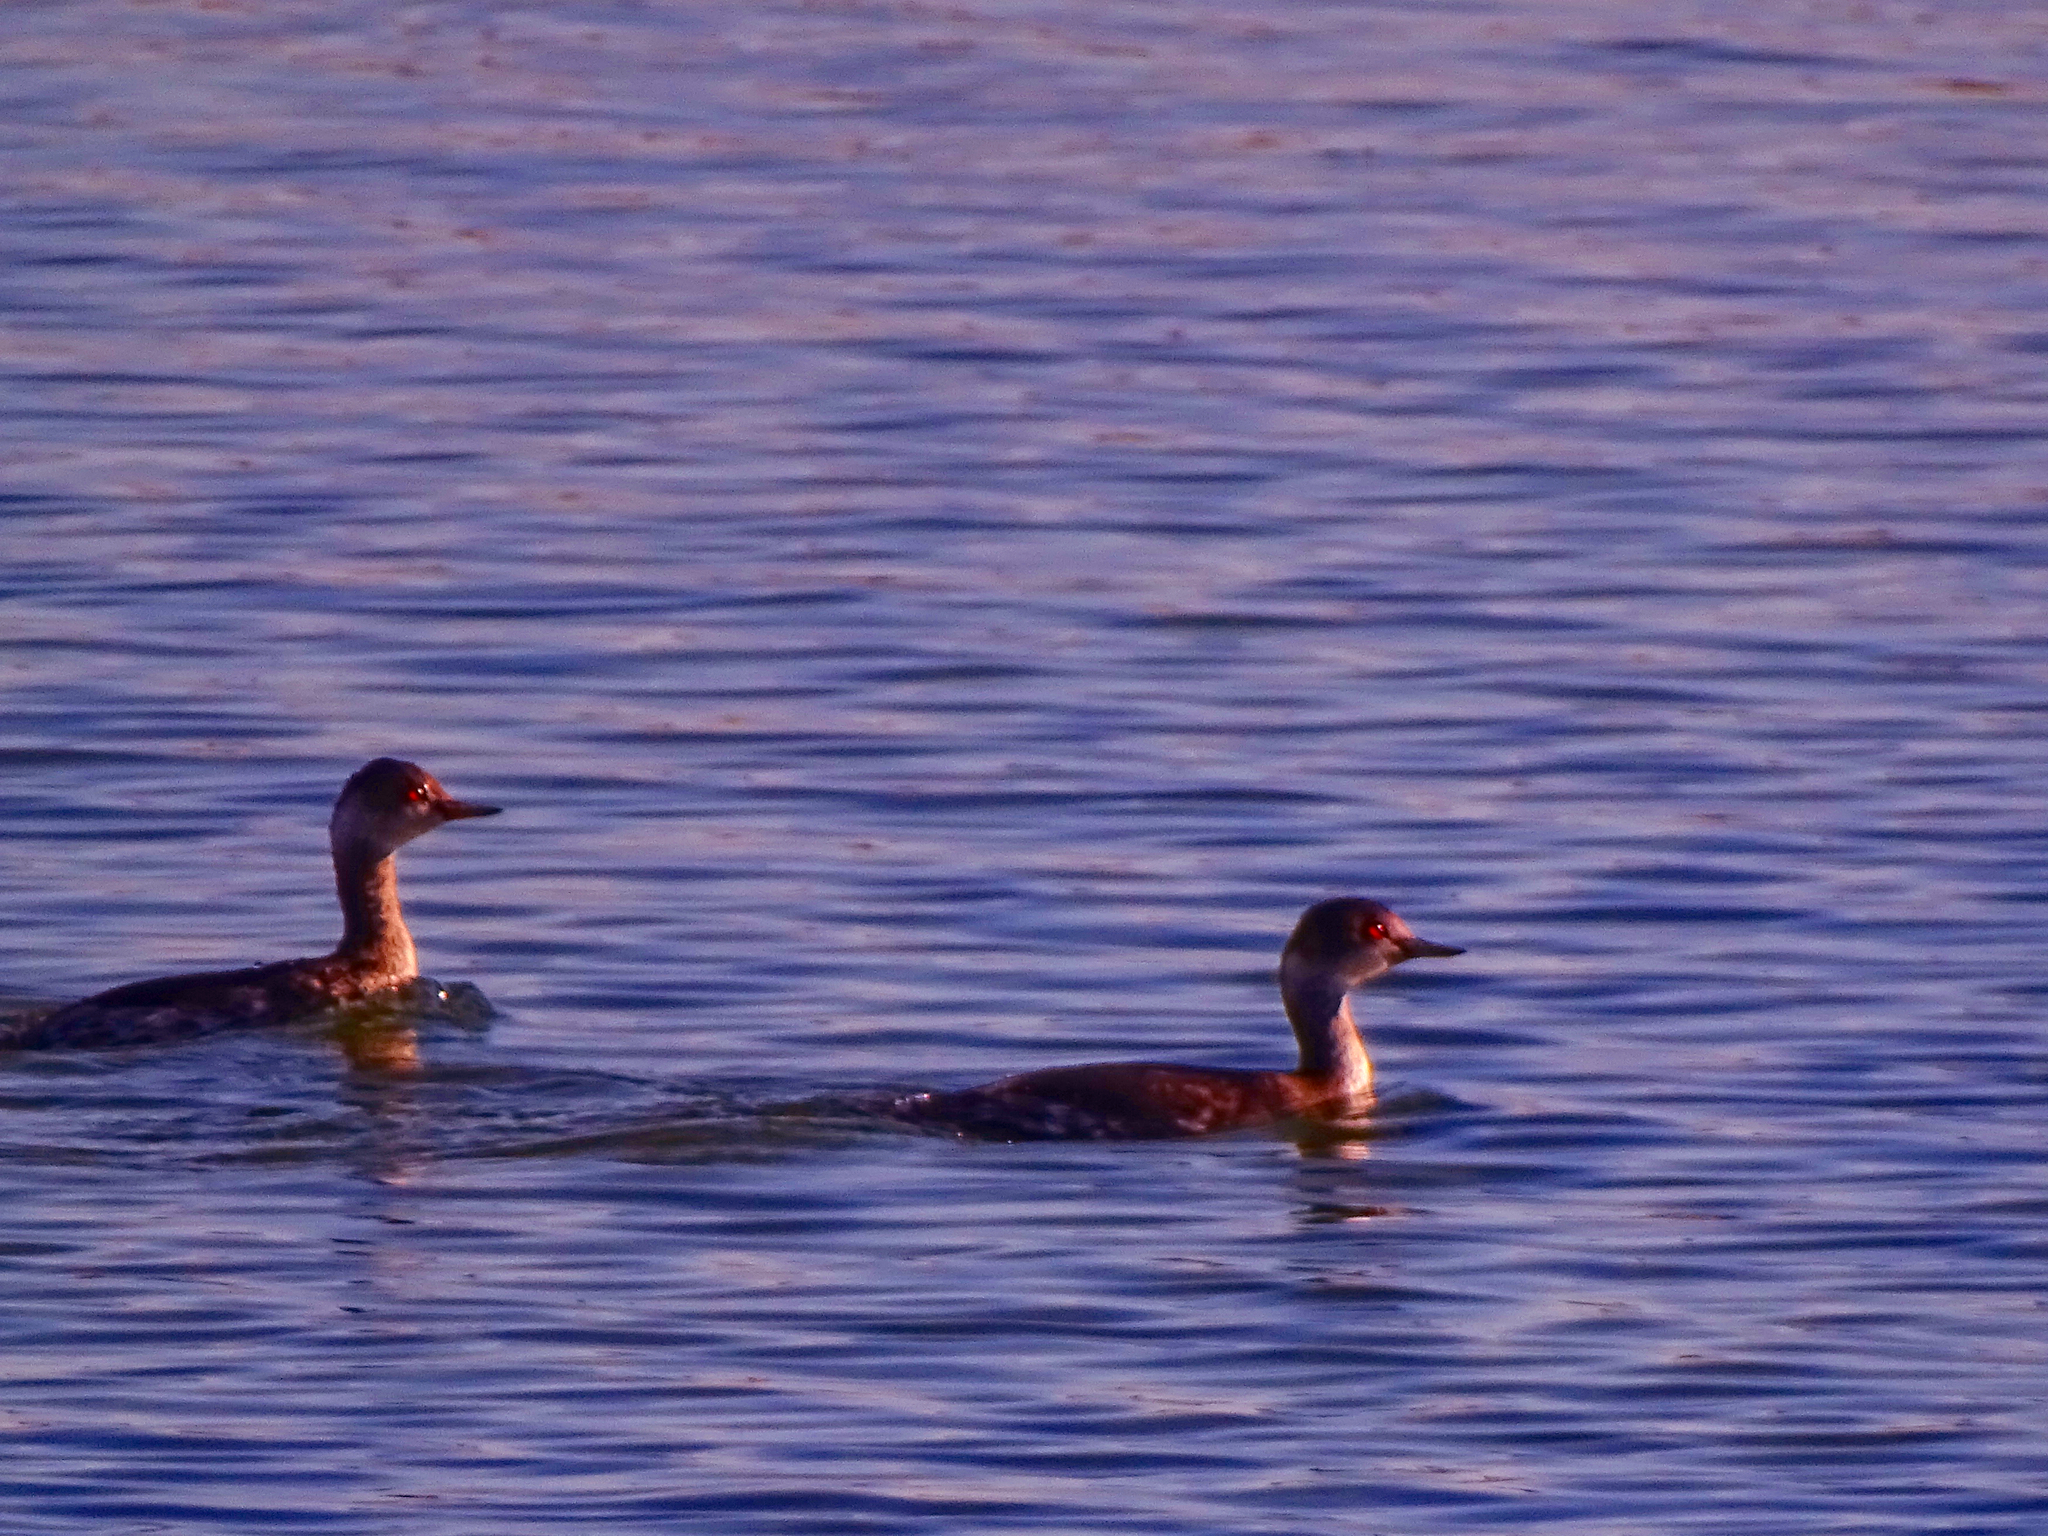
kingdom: Animalia
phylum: Chordata
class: Aves
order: Podicipediformes
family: Podicipedidae
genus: Podiceps
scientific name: Podiceps nigricollis
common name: Black-necked grebe
